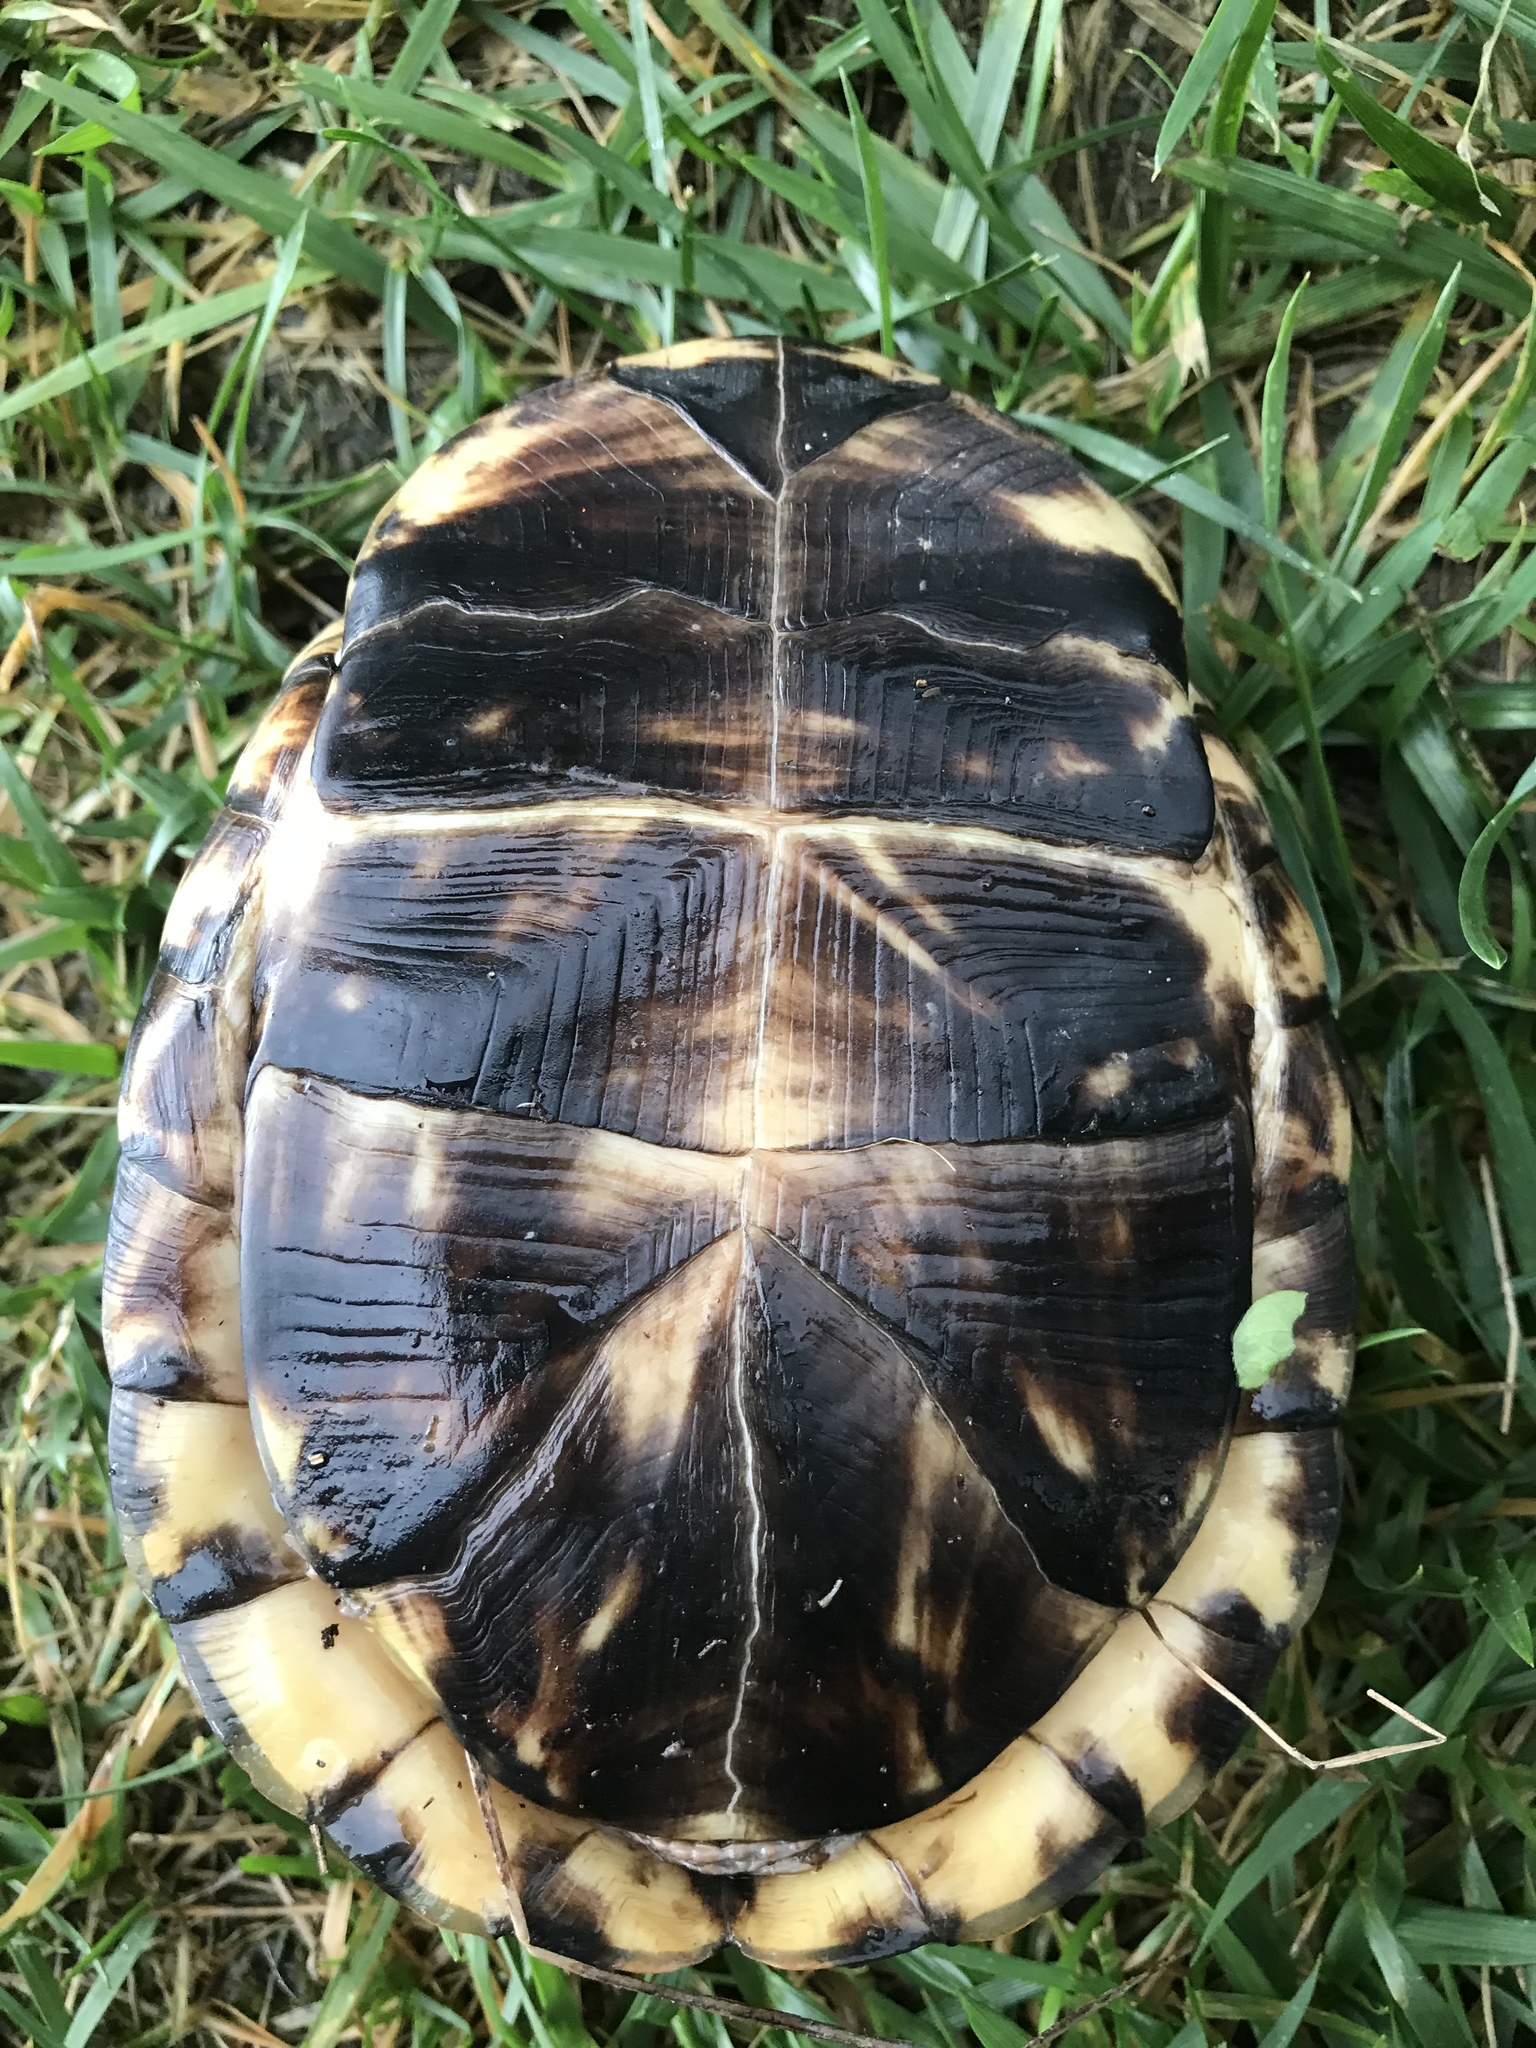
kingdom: Animalia
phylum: Chordata
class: Testudines
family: Emydidae
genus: Terrapene
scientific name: Terrapene carolina
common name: Common box turtle
